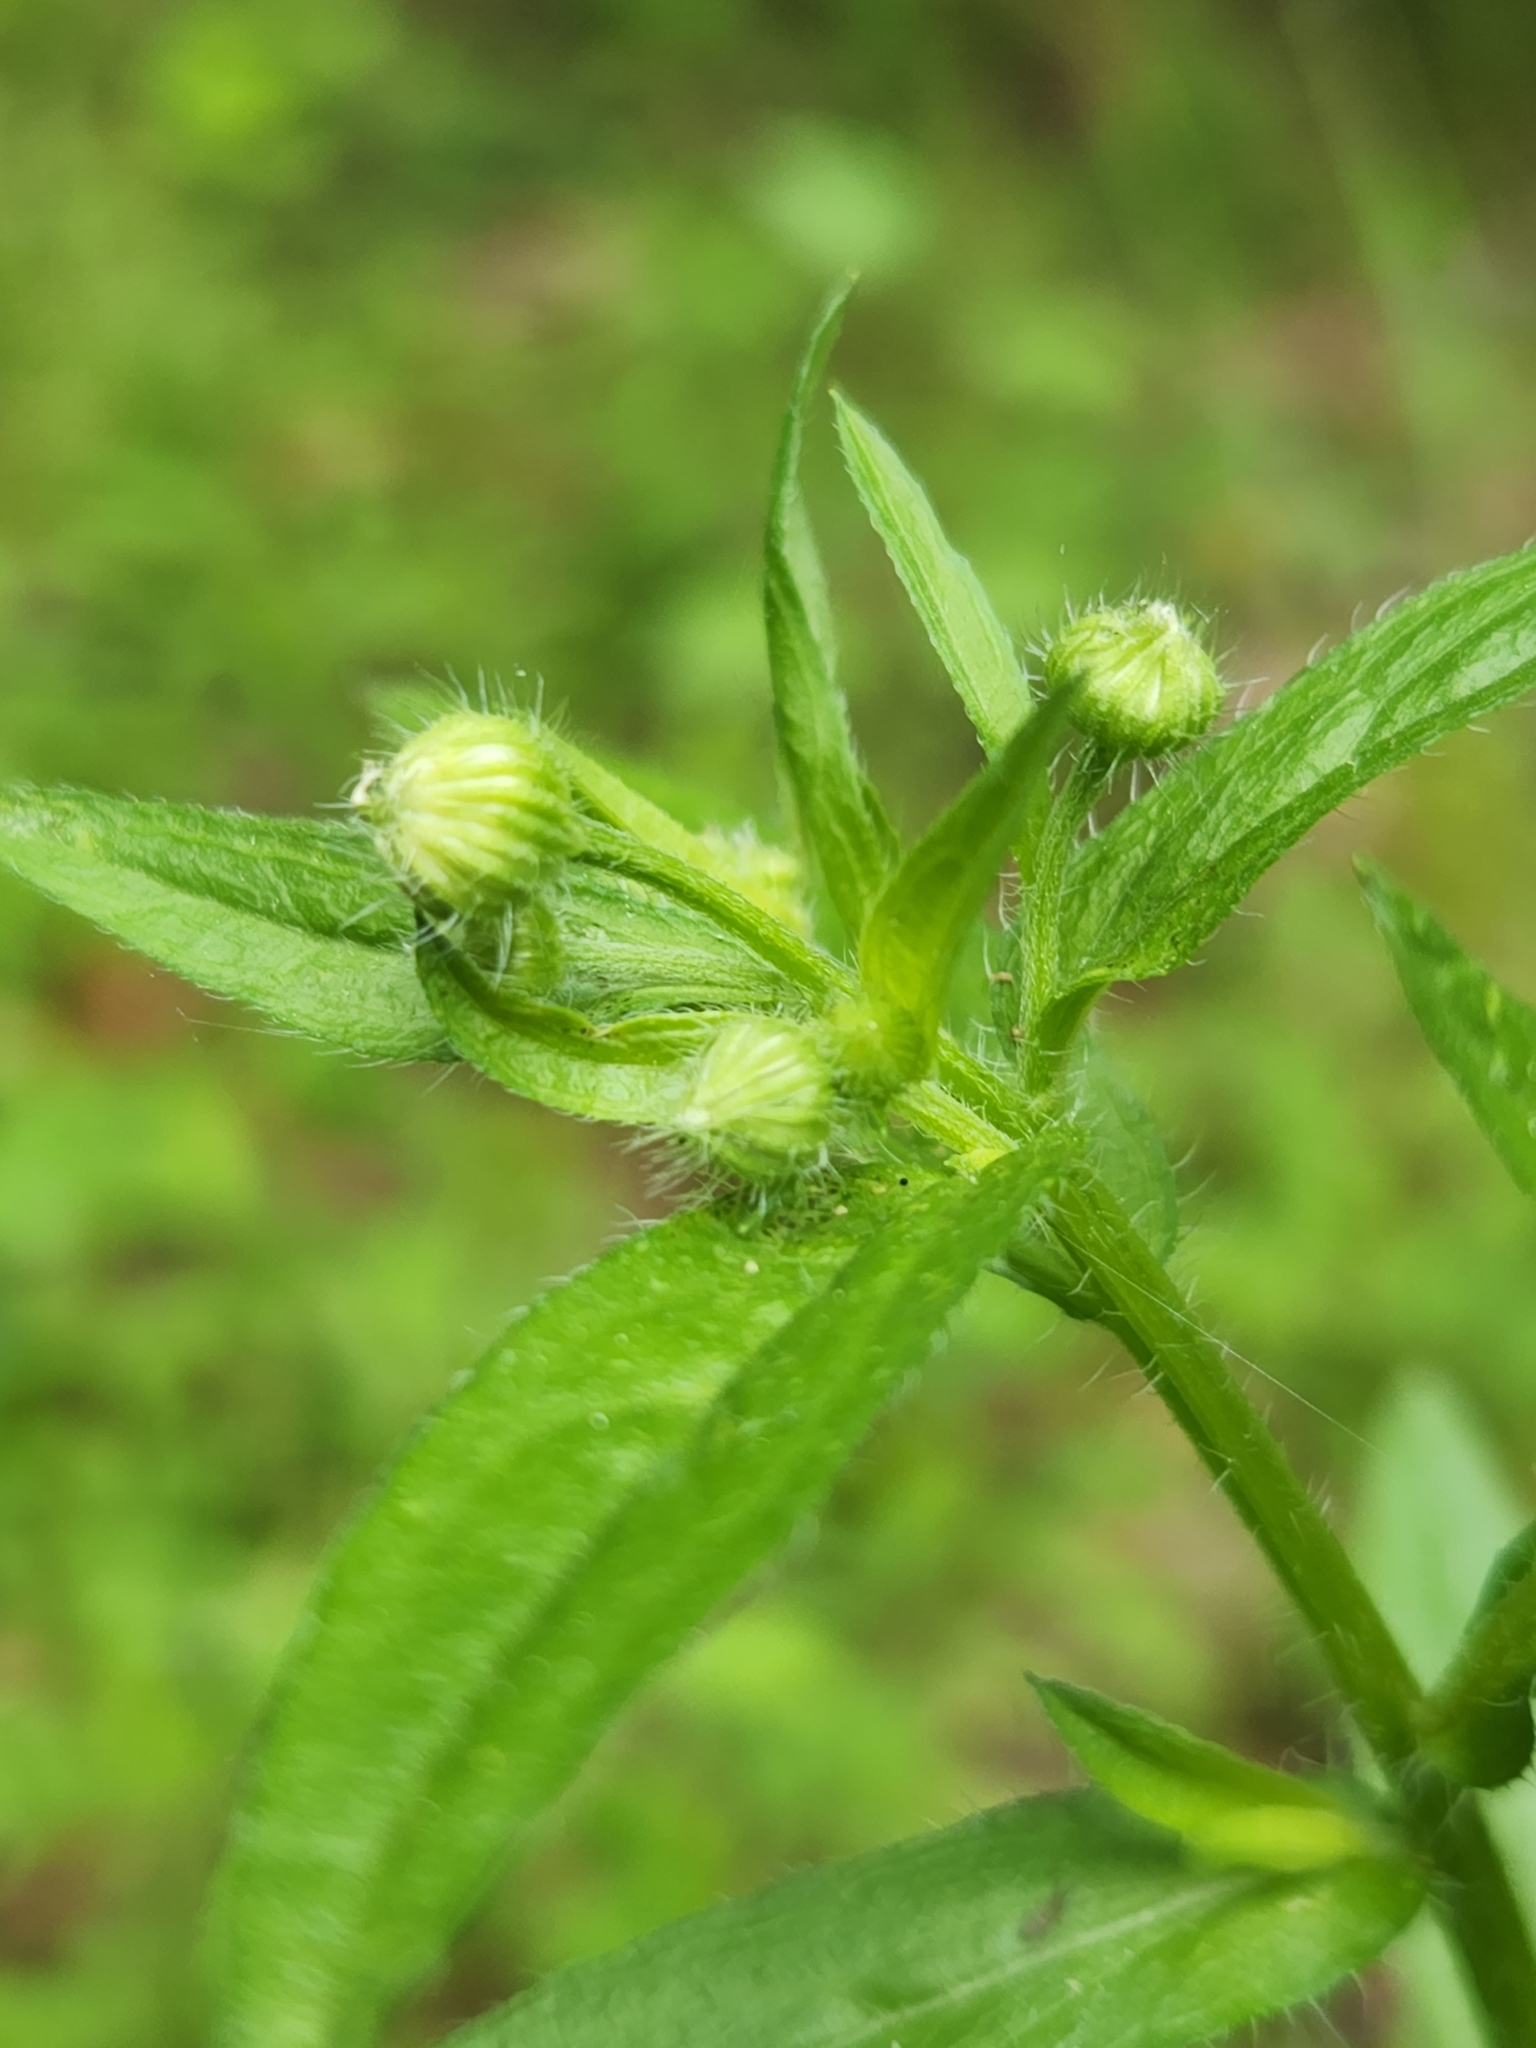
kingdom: Plantae
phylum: Tracheophyta
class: Magnoliopsida
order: Asterales
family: Asteraceae
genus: Erigeron
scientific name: Erigeron annuus
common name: Tall fleabane
